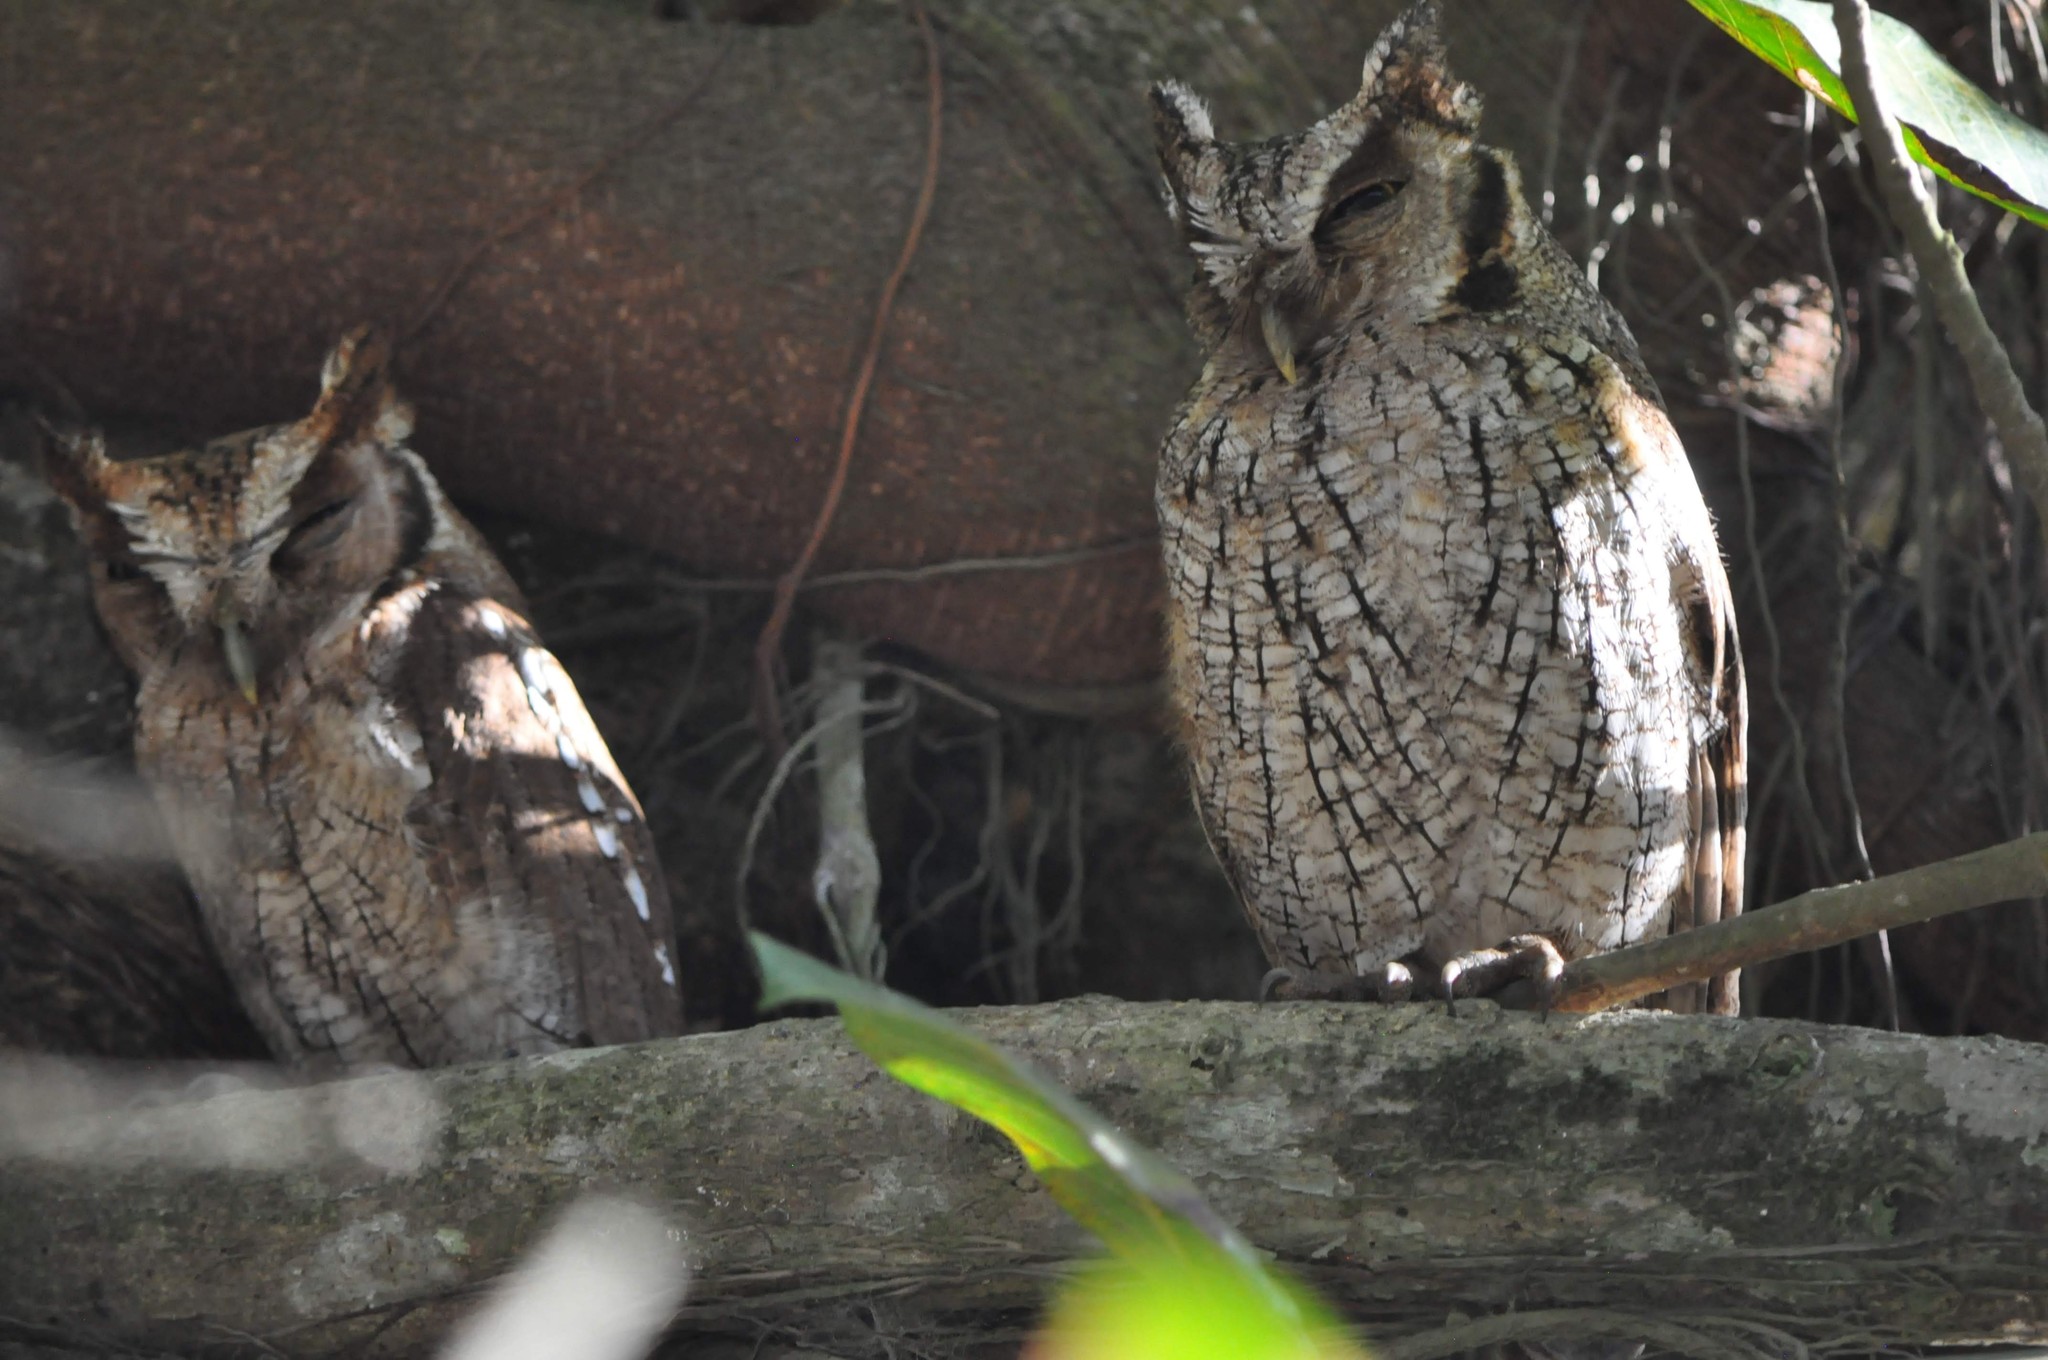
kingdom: Animalia
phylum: Chordata
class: Aves
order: Strigiformes
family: Strigidae
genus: Megascops
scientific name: Megascops choliba
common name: Tropical screech-owl
